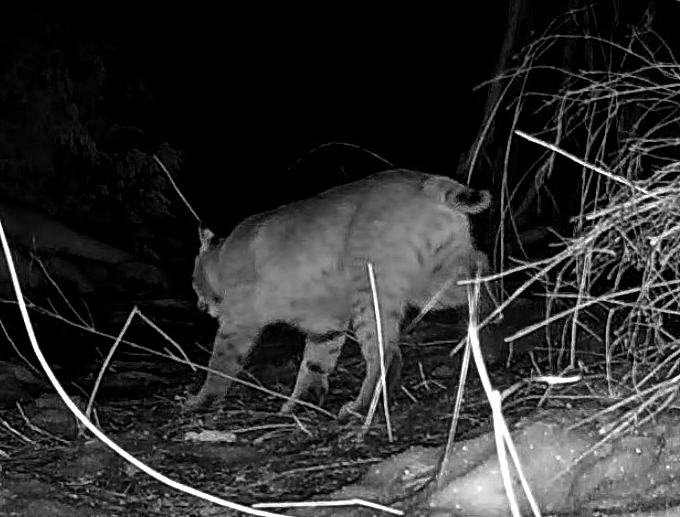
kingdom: Animalia
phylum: Chordata
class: Mammalia
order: Carnivora
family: Felidae
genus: Lynx
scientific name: Lynx rufus
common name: Bobcat
